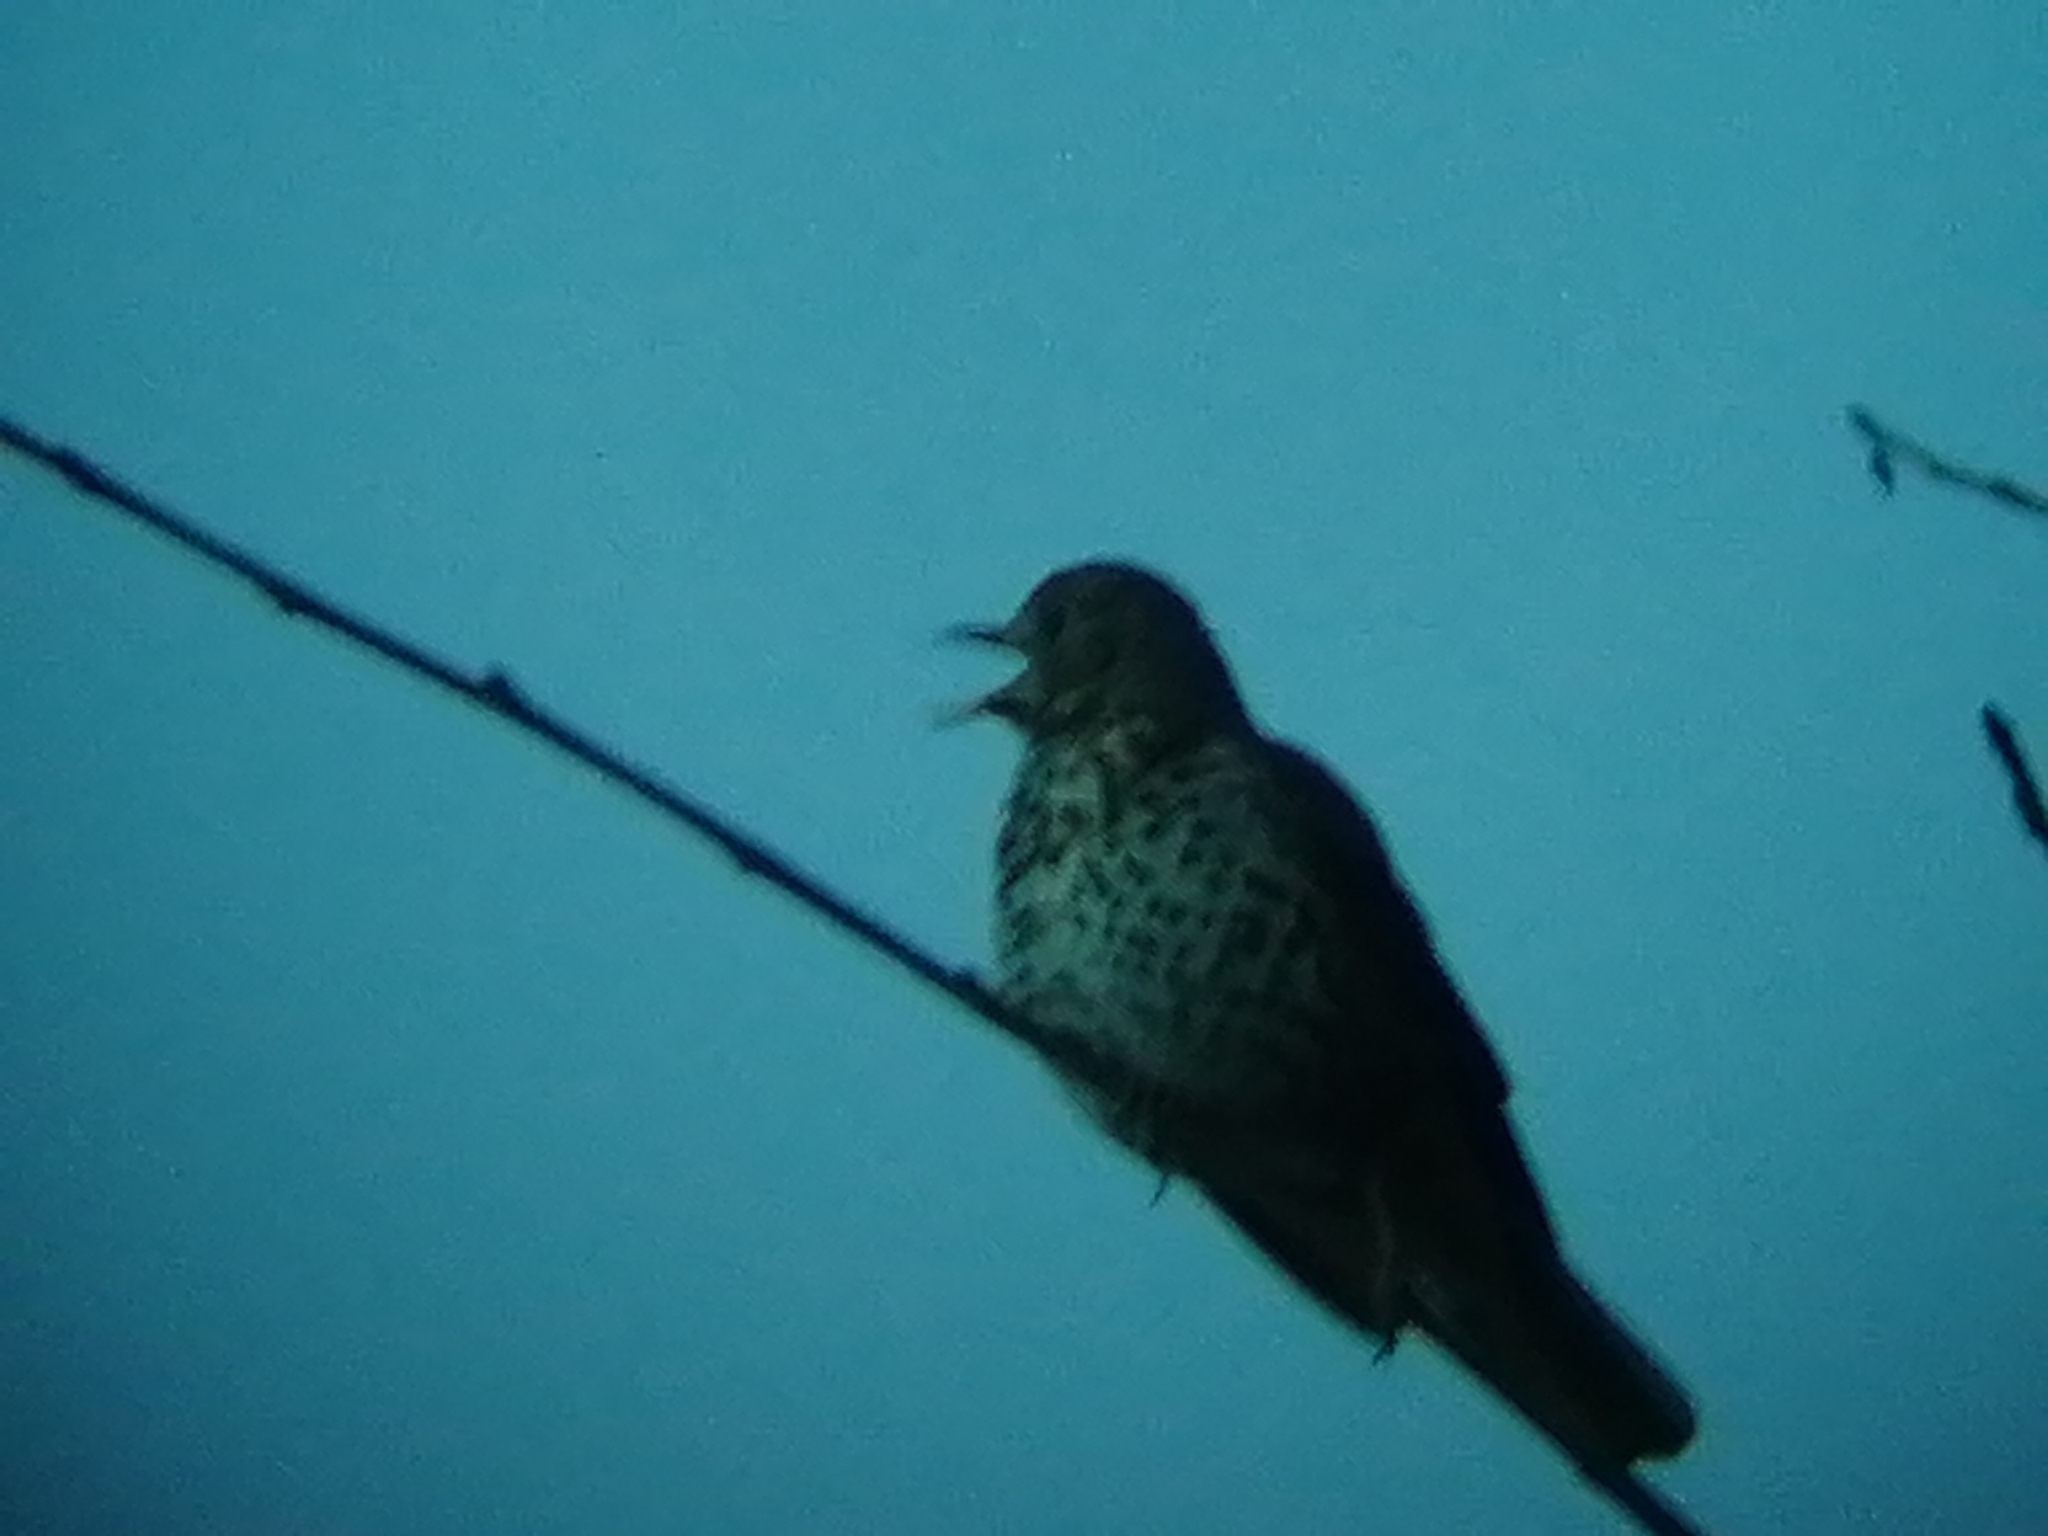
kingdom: Animalia
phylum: Chordata
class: Aves
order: Passeriformes
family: Turdidae
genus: Turdus
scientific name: Turdus philomelos
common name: Song thrush
